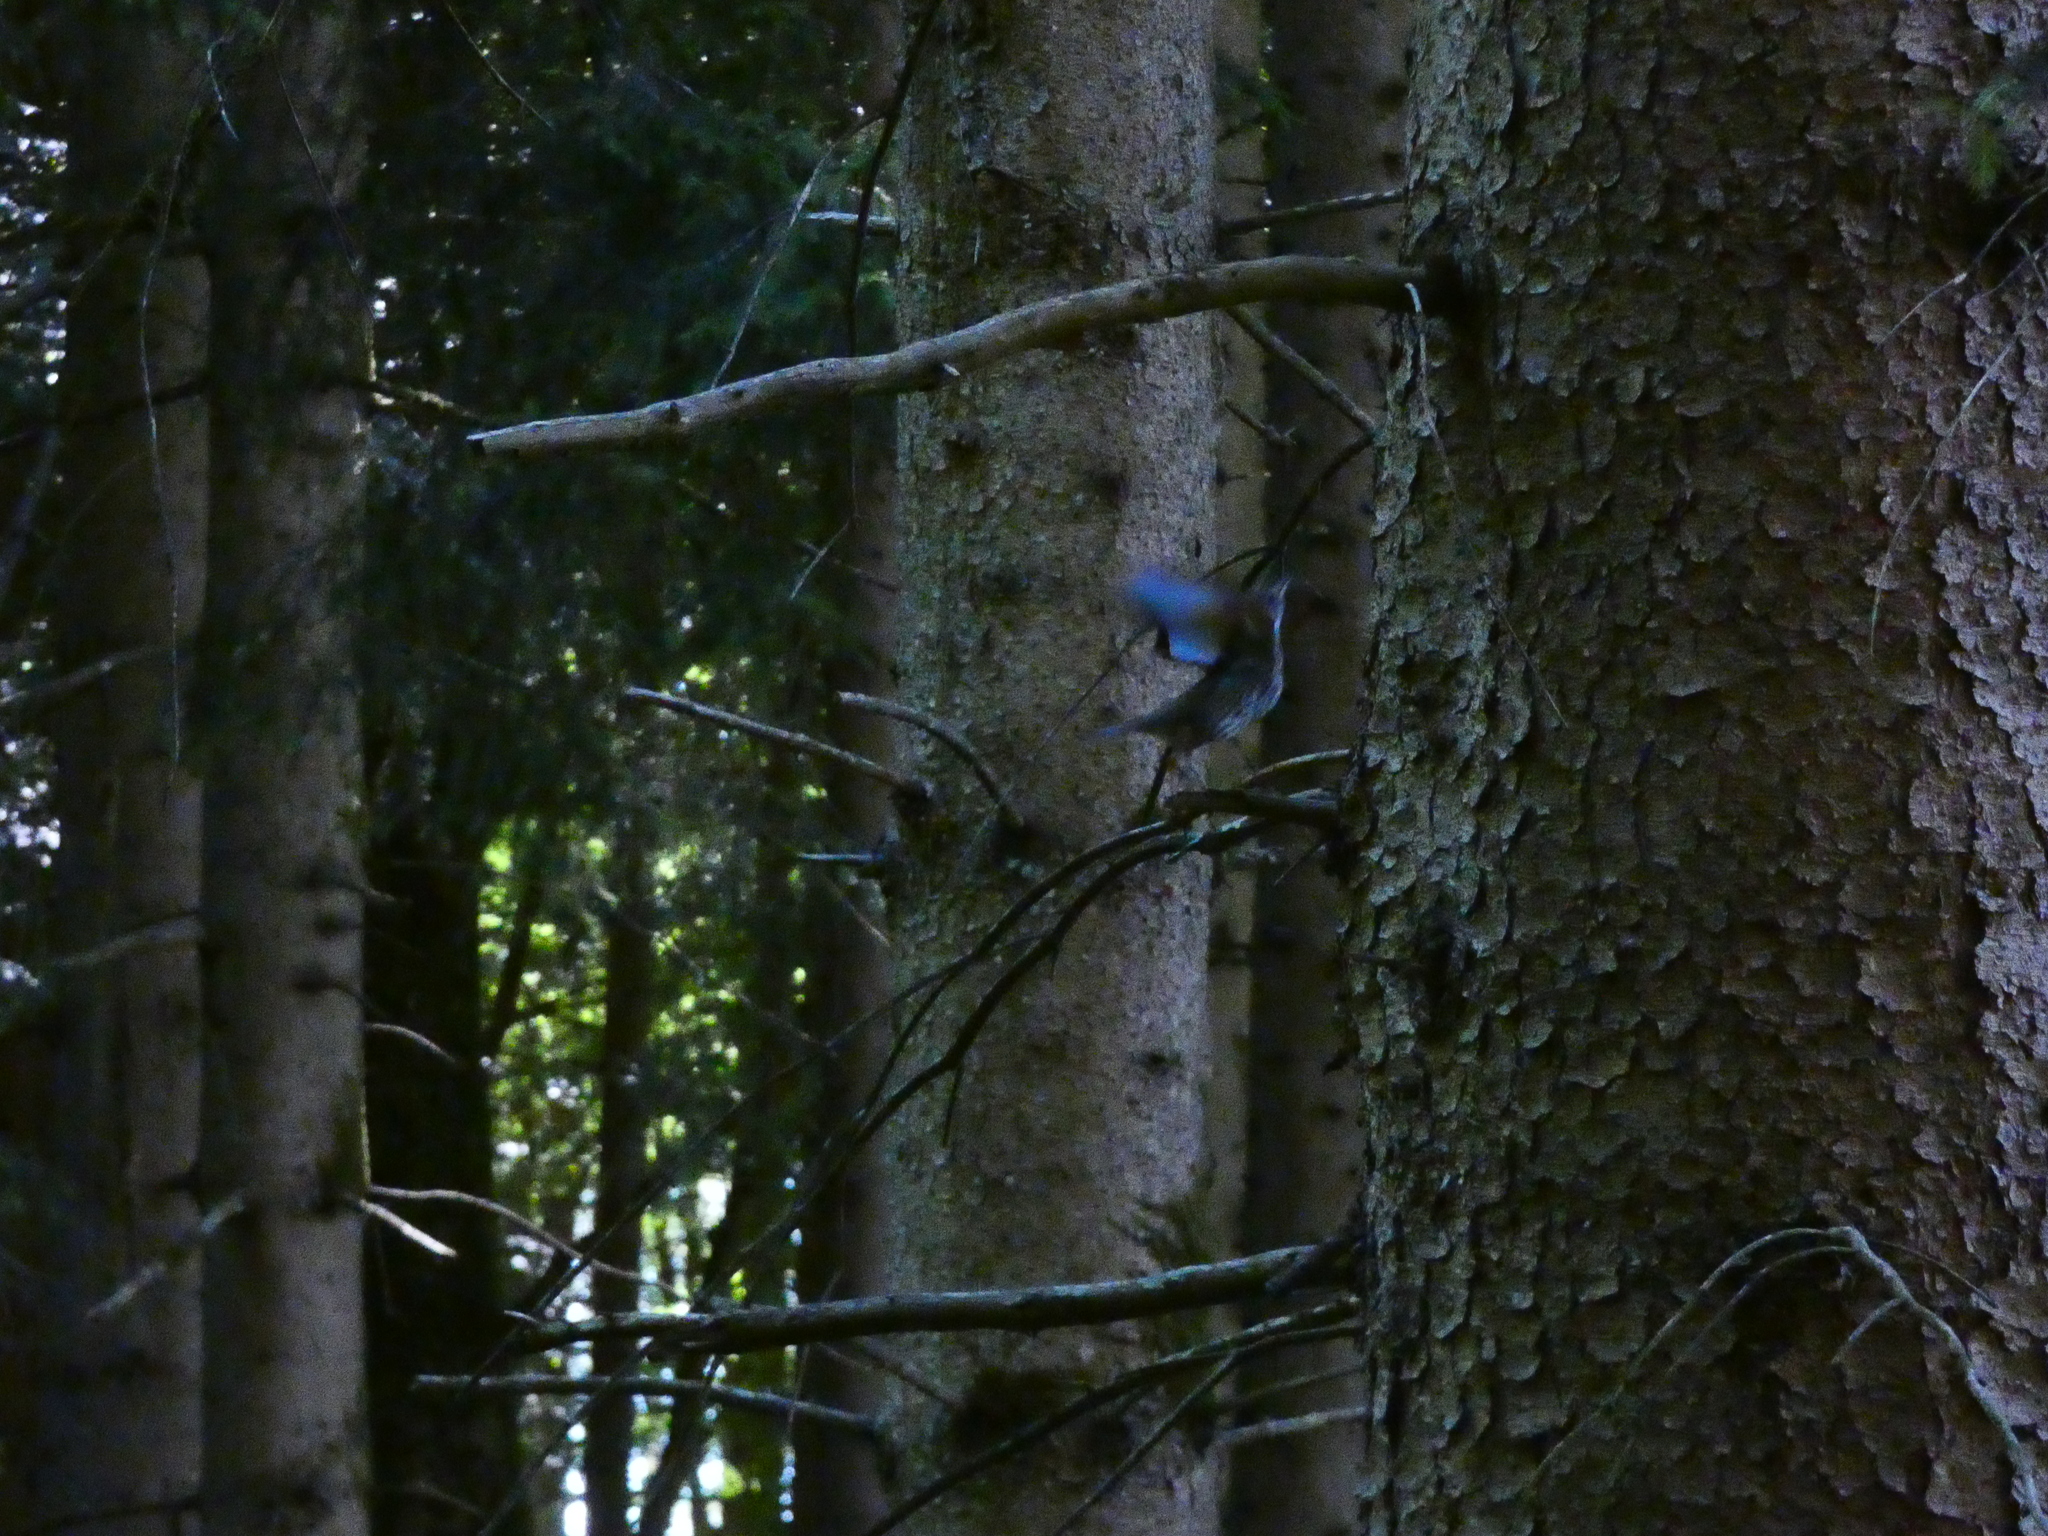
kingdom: Animalia
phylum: Chordata
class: Aves
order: Passeriformes
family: Turdidae
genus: Turdus
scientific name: Turdus philomelos
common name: Song thrush
